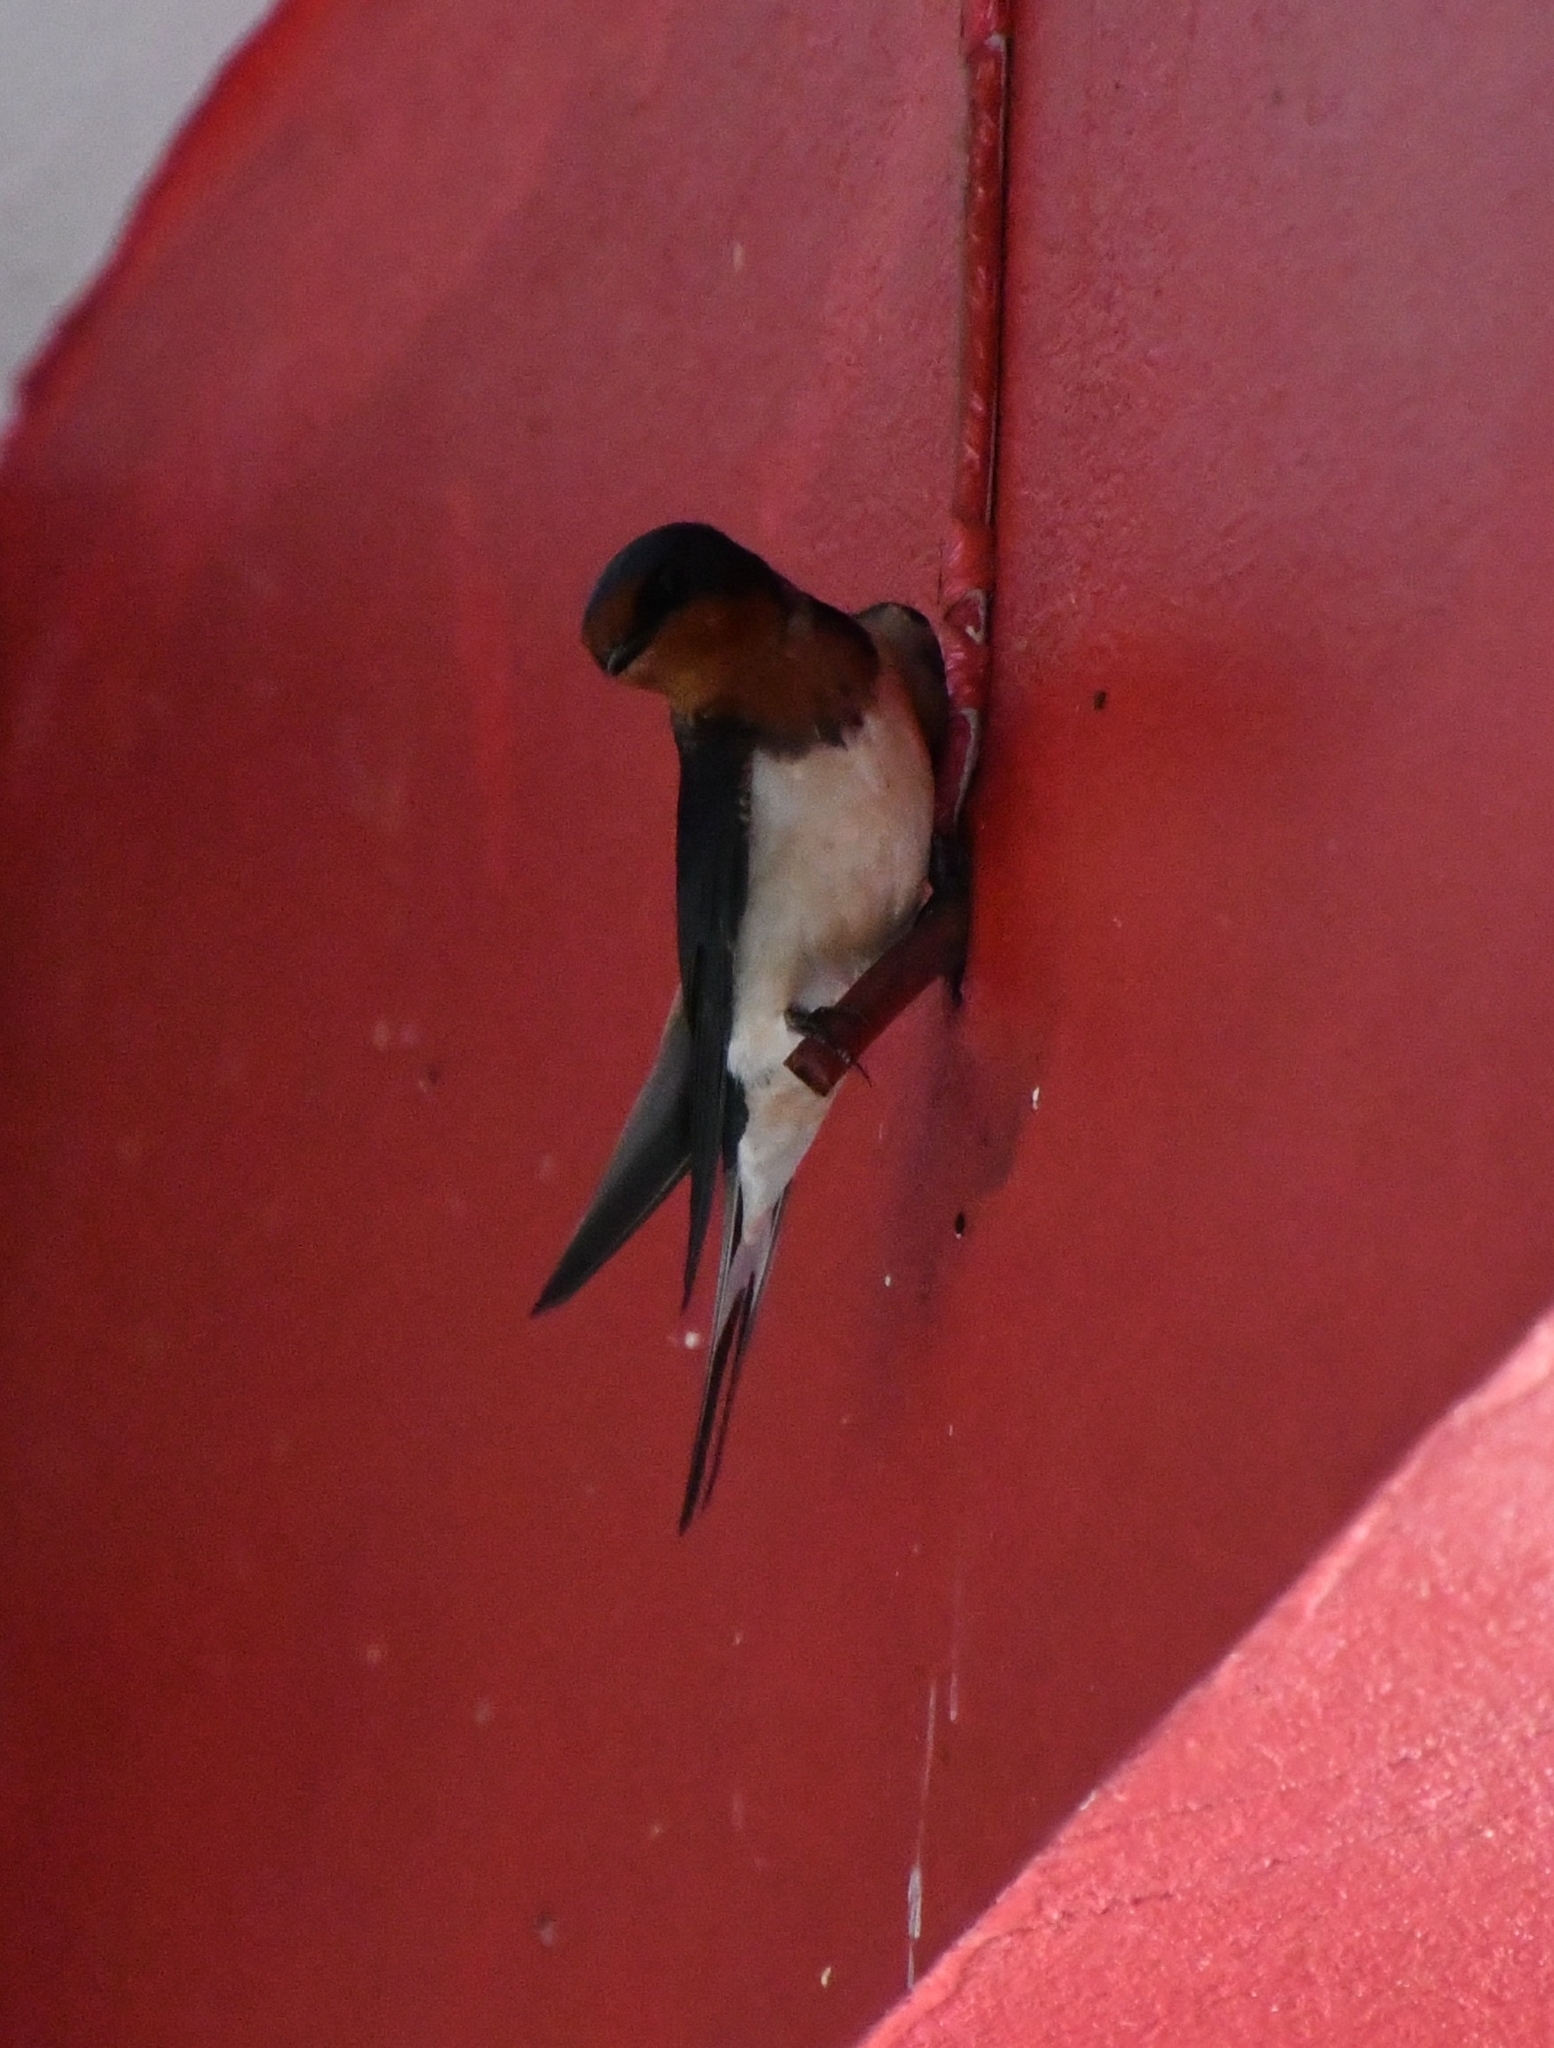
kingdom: Animalia
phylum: Chordata
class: Aves
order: Passeriformes
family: Hirundinidae
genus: Hirundo
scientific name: Hirundo rustica
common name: Barn swallow
